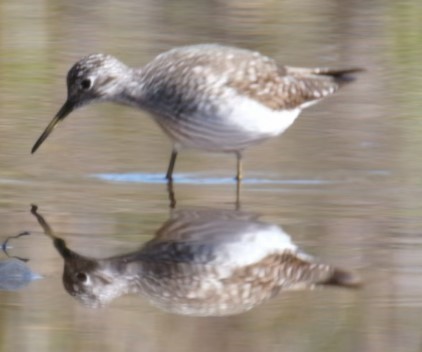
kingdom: Animalia
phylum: Chordata
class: Aves
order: Charadriiformes
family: Scolopacidae
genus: Tringa
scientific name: Tringa solitaria
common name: Solitary sandpiper
